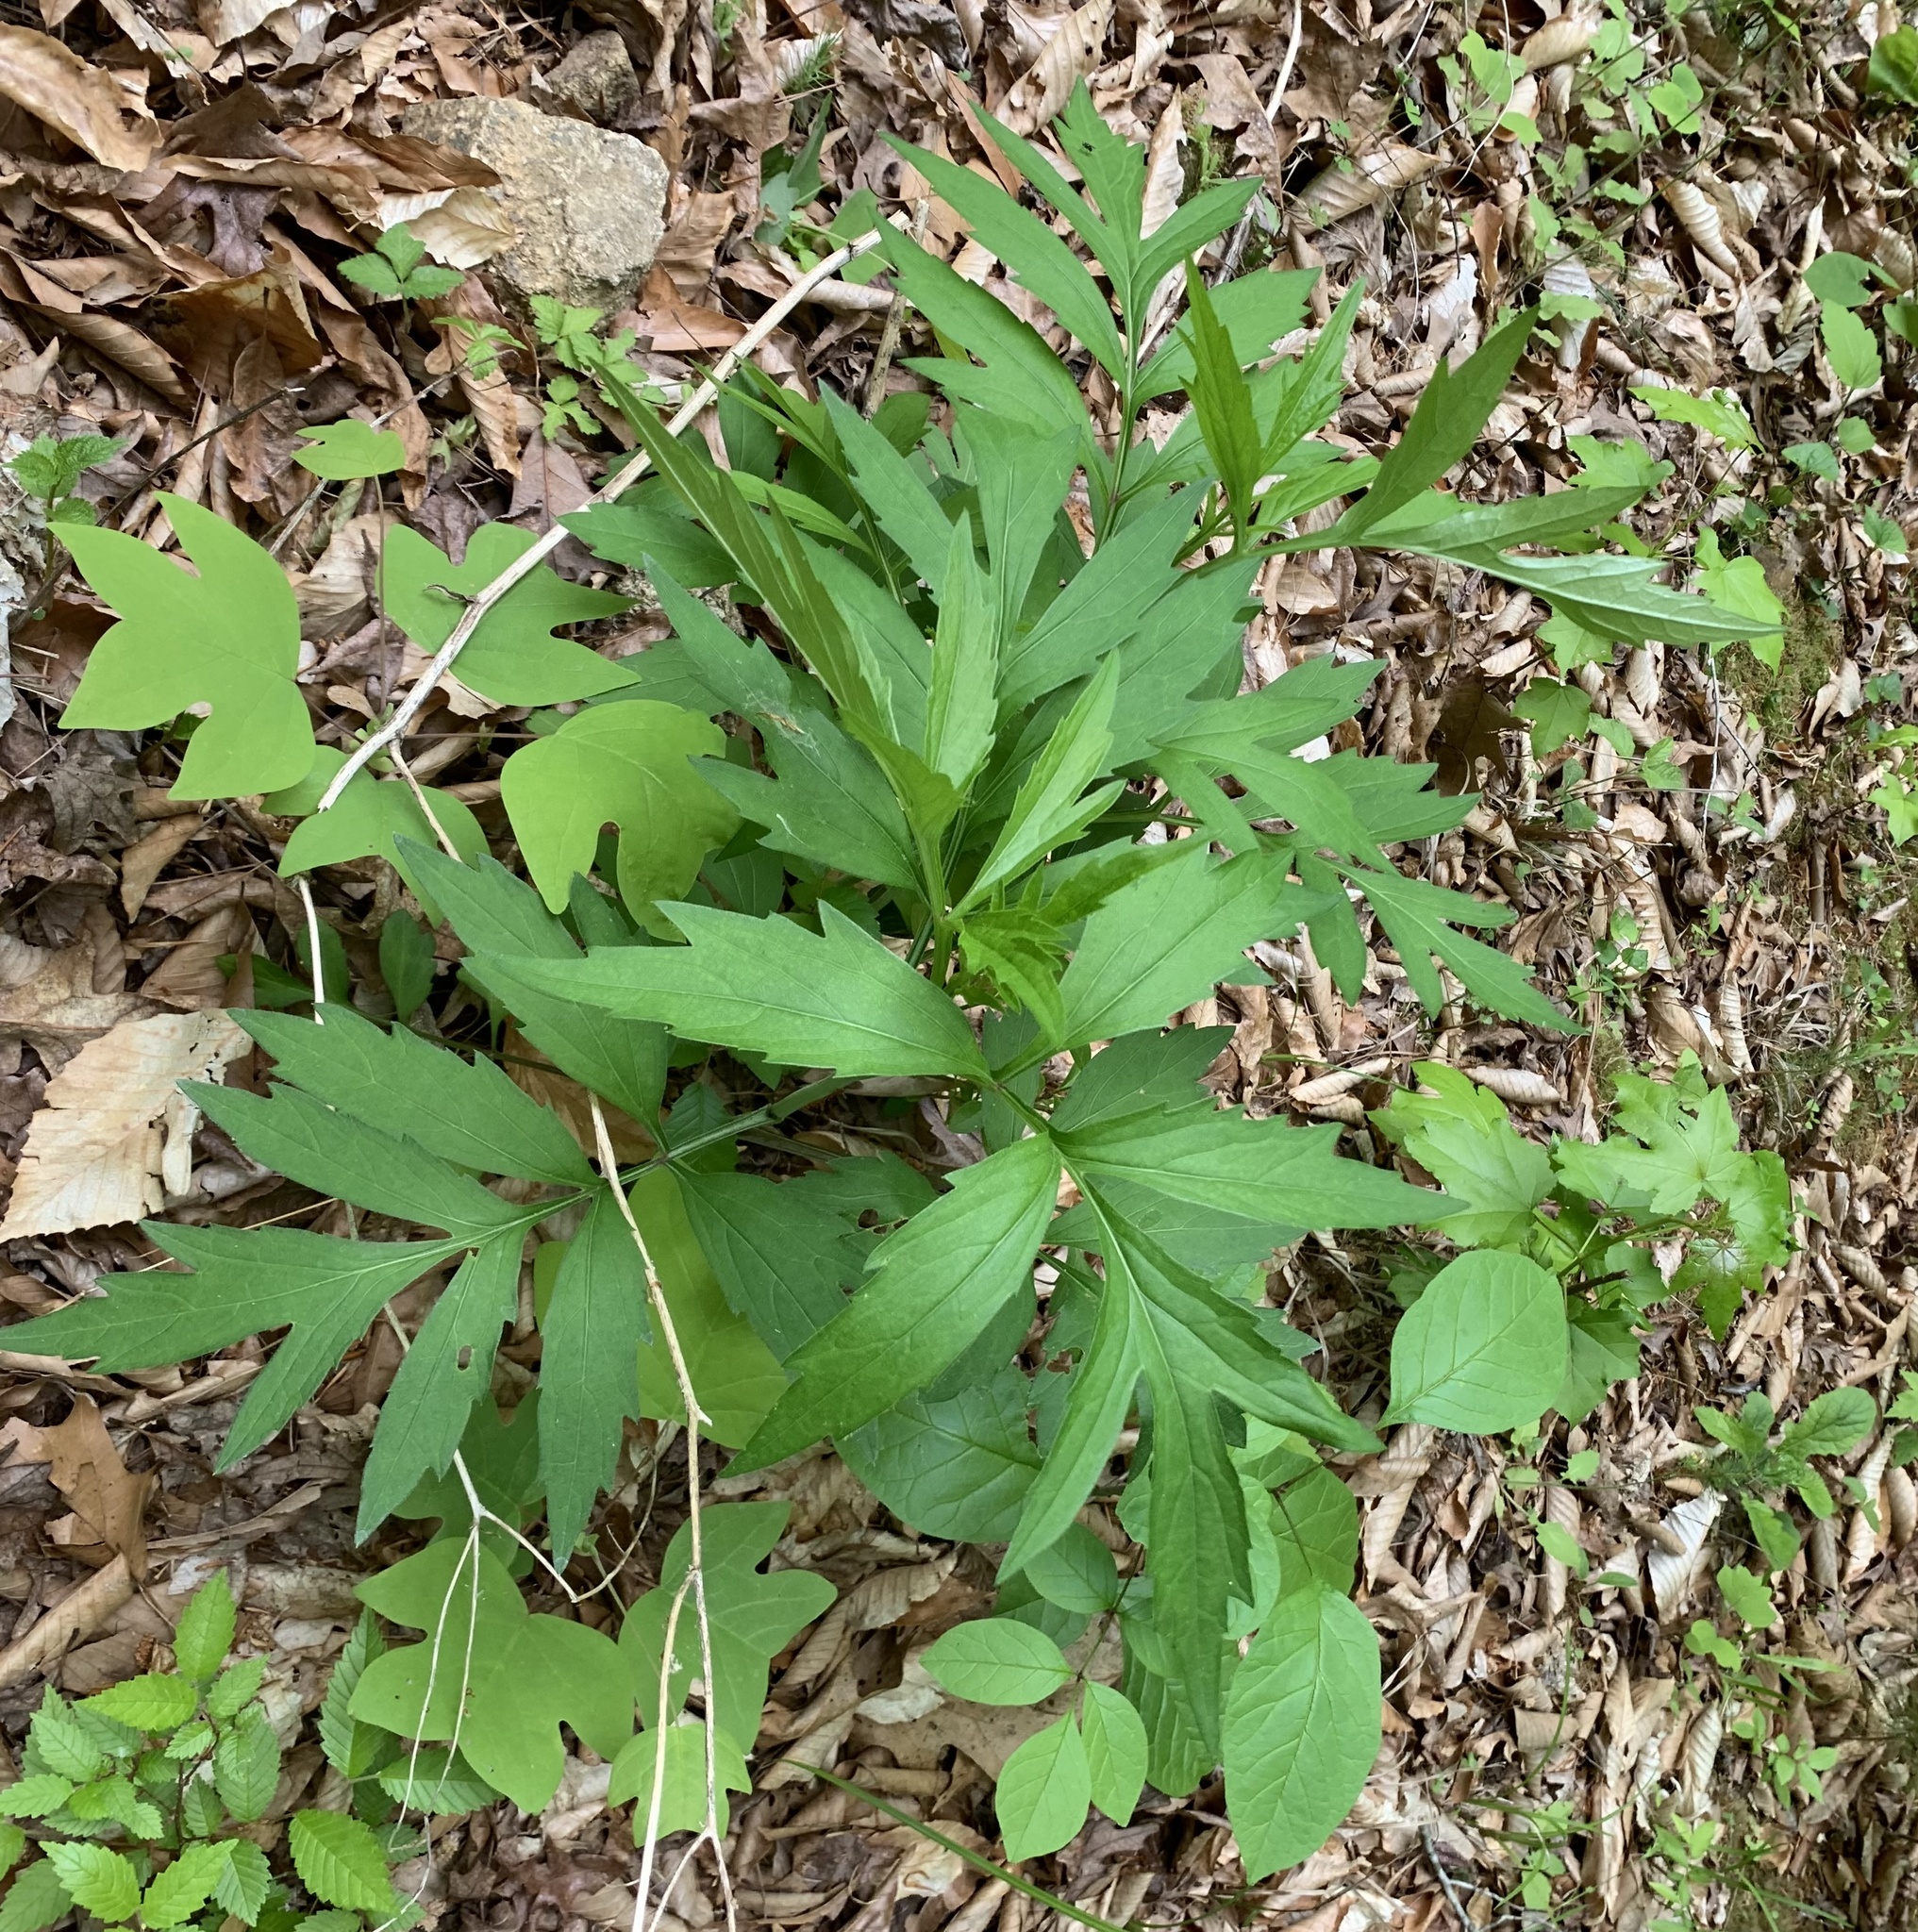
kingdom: Plantae
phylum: Tracheophyta
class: Magnoliopsida
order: Asterales
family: Asteraceae
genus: Rudbeckia
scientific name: Rudbeckia laciniata
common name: Coneflower
